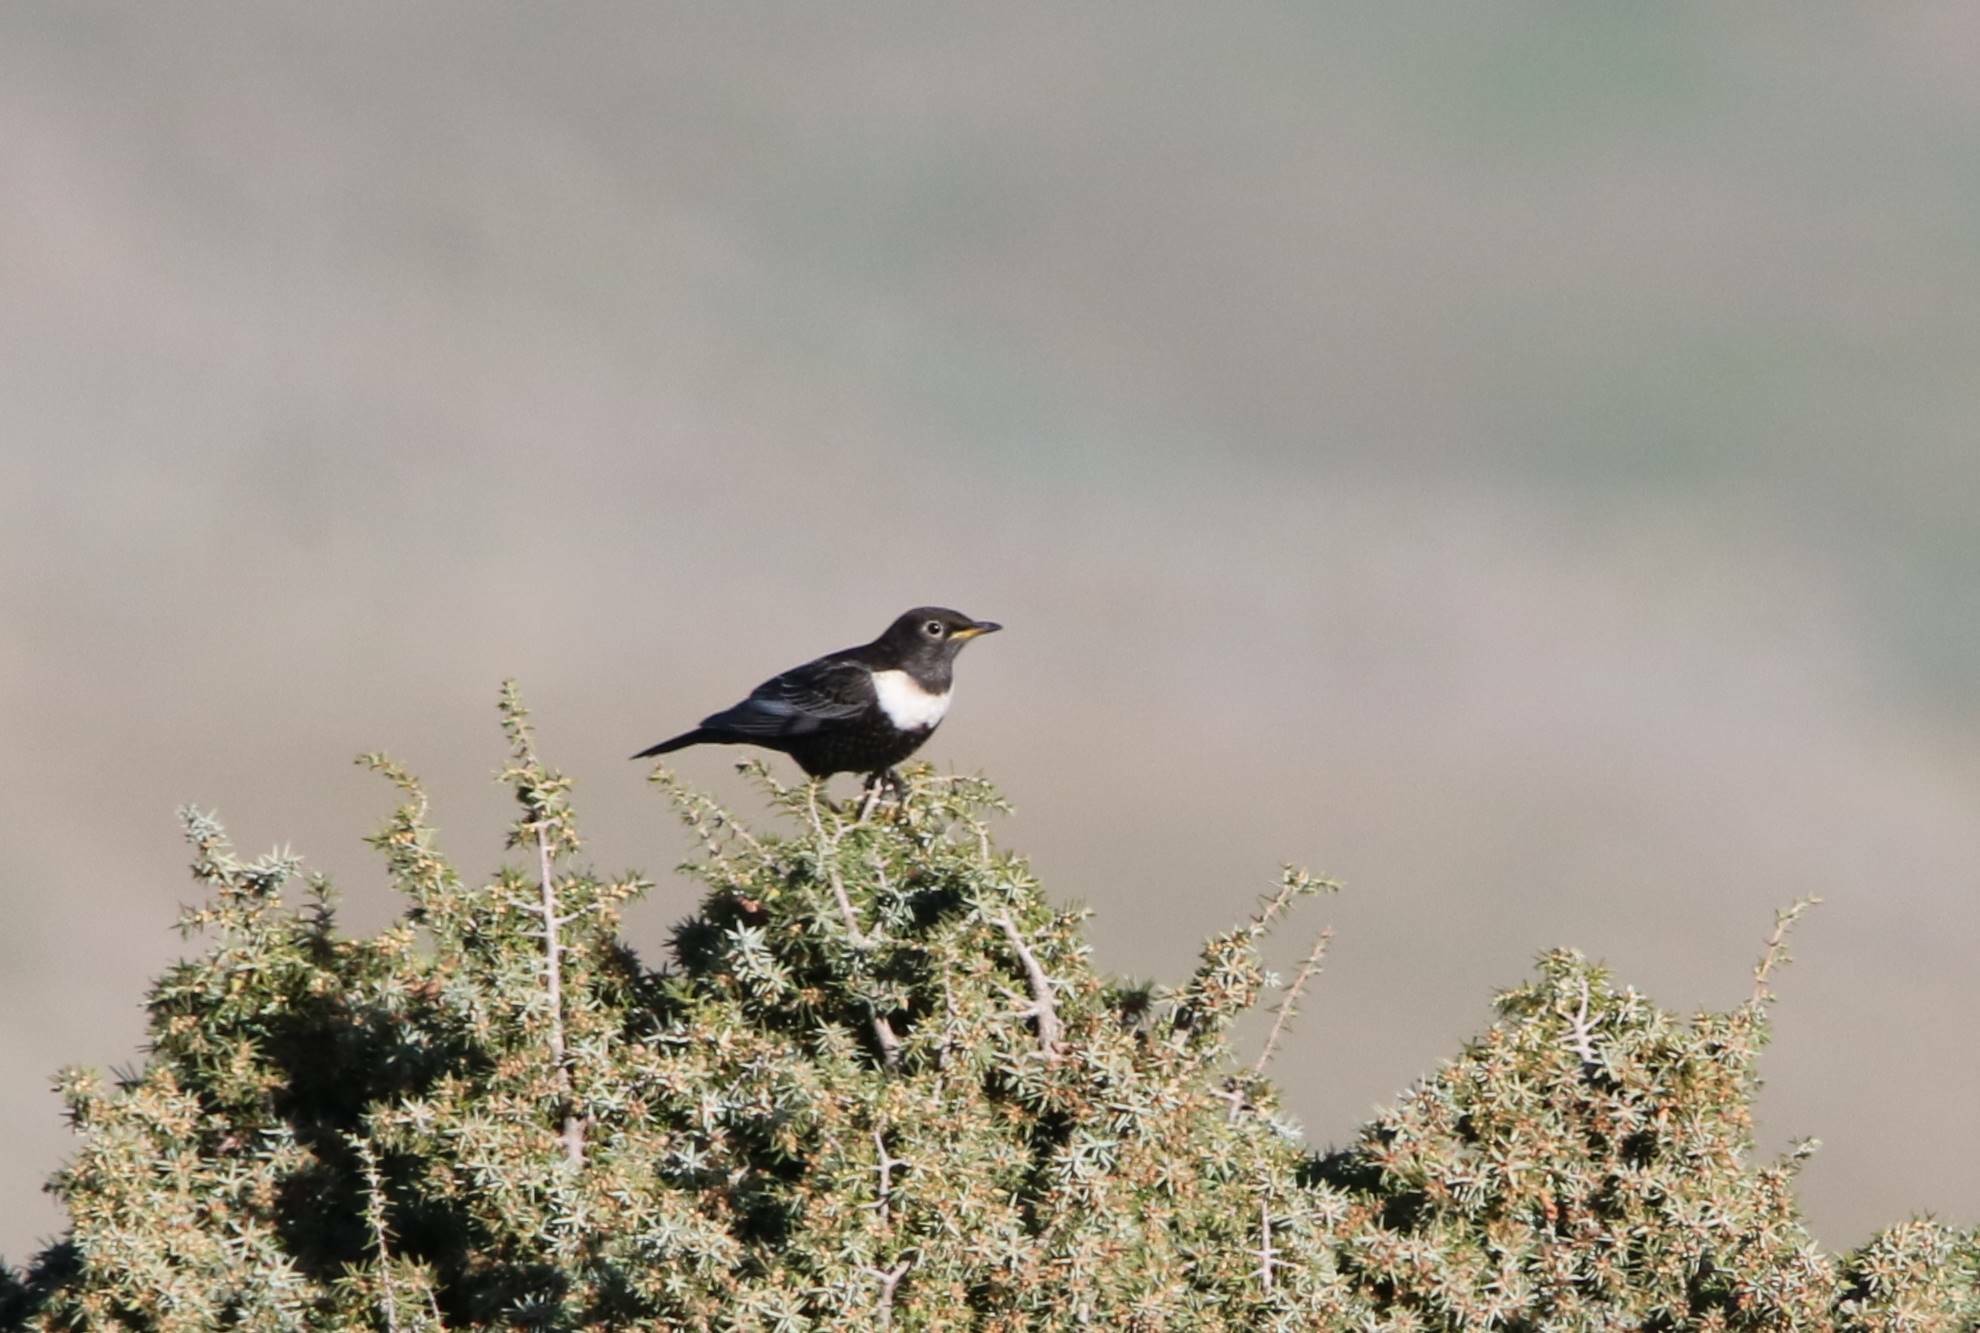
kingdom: Animalia
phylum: Chordata
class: Aves
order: Passeriformes
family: Turdidae
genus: Turdus
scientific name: Turdus torquatus
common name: Ring ouzel
